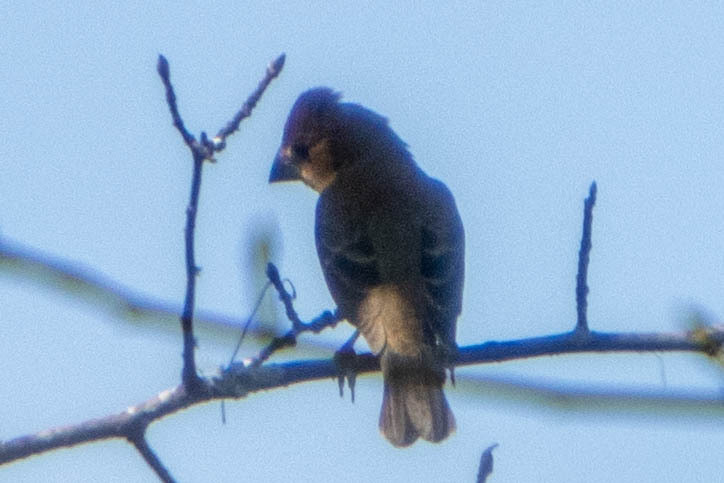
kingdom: Animalia
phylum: Chordata
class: Aves
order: Passeriformes
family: Cardinalidae
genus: Passerina
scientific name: Passerina caerulea
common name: Blue grosbeak
